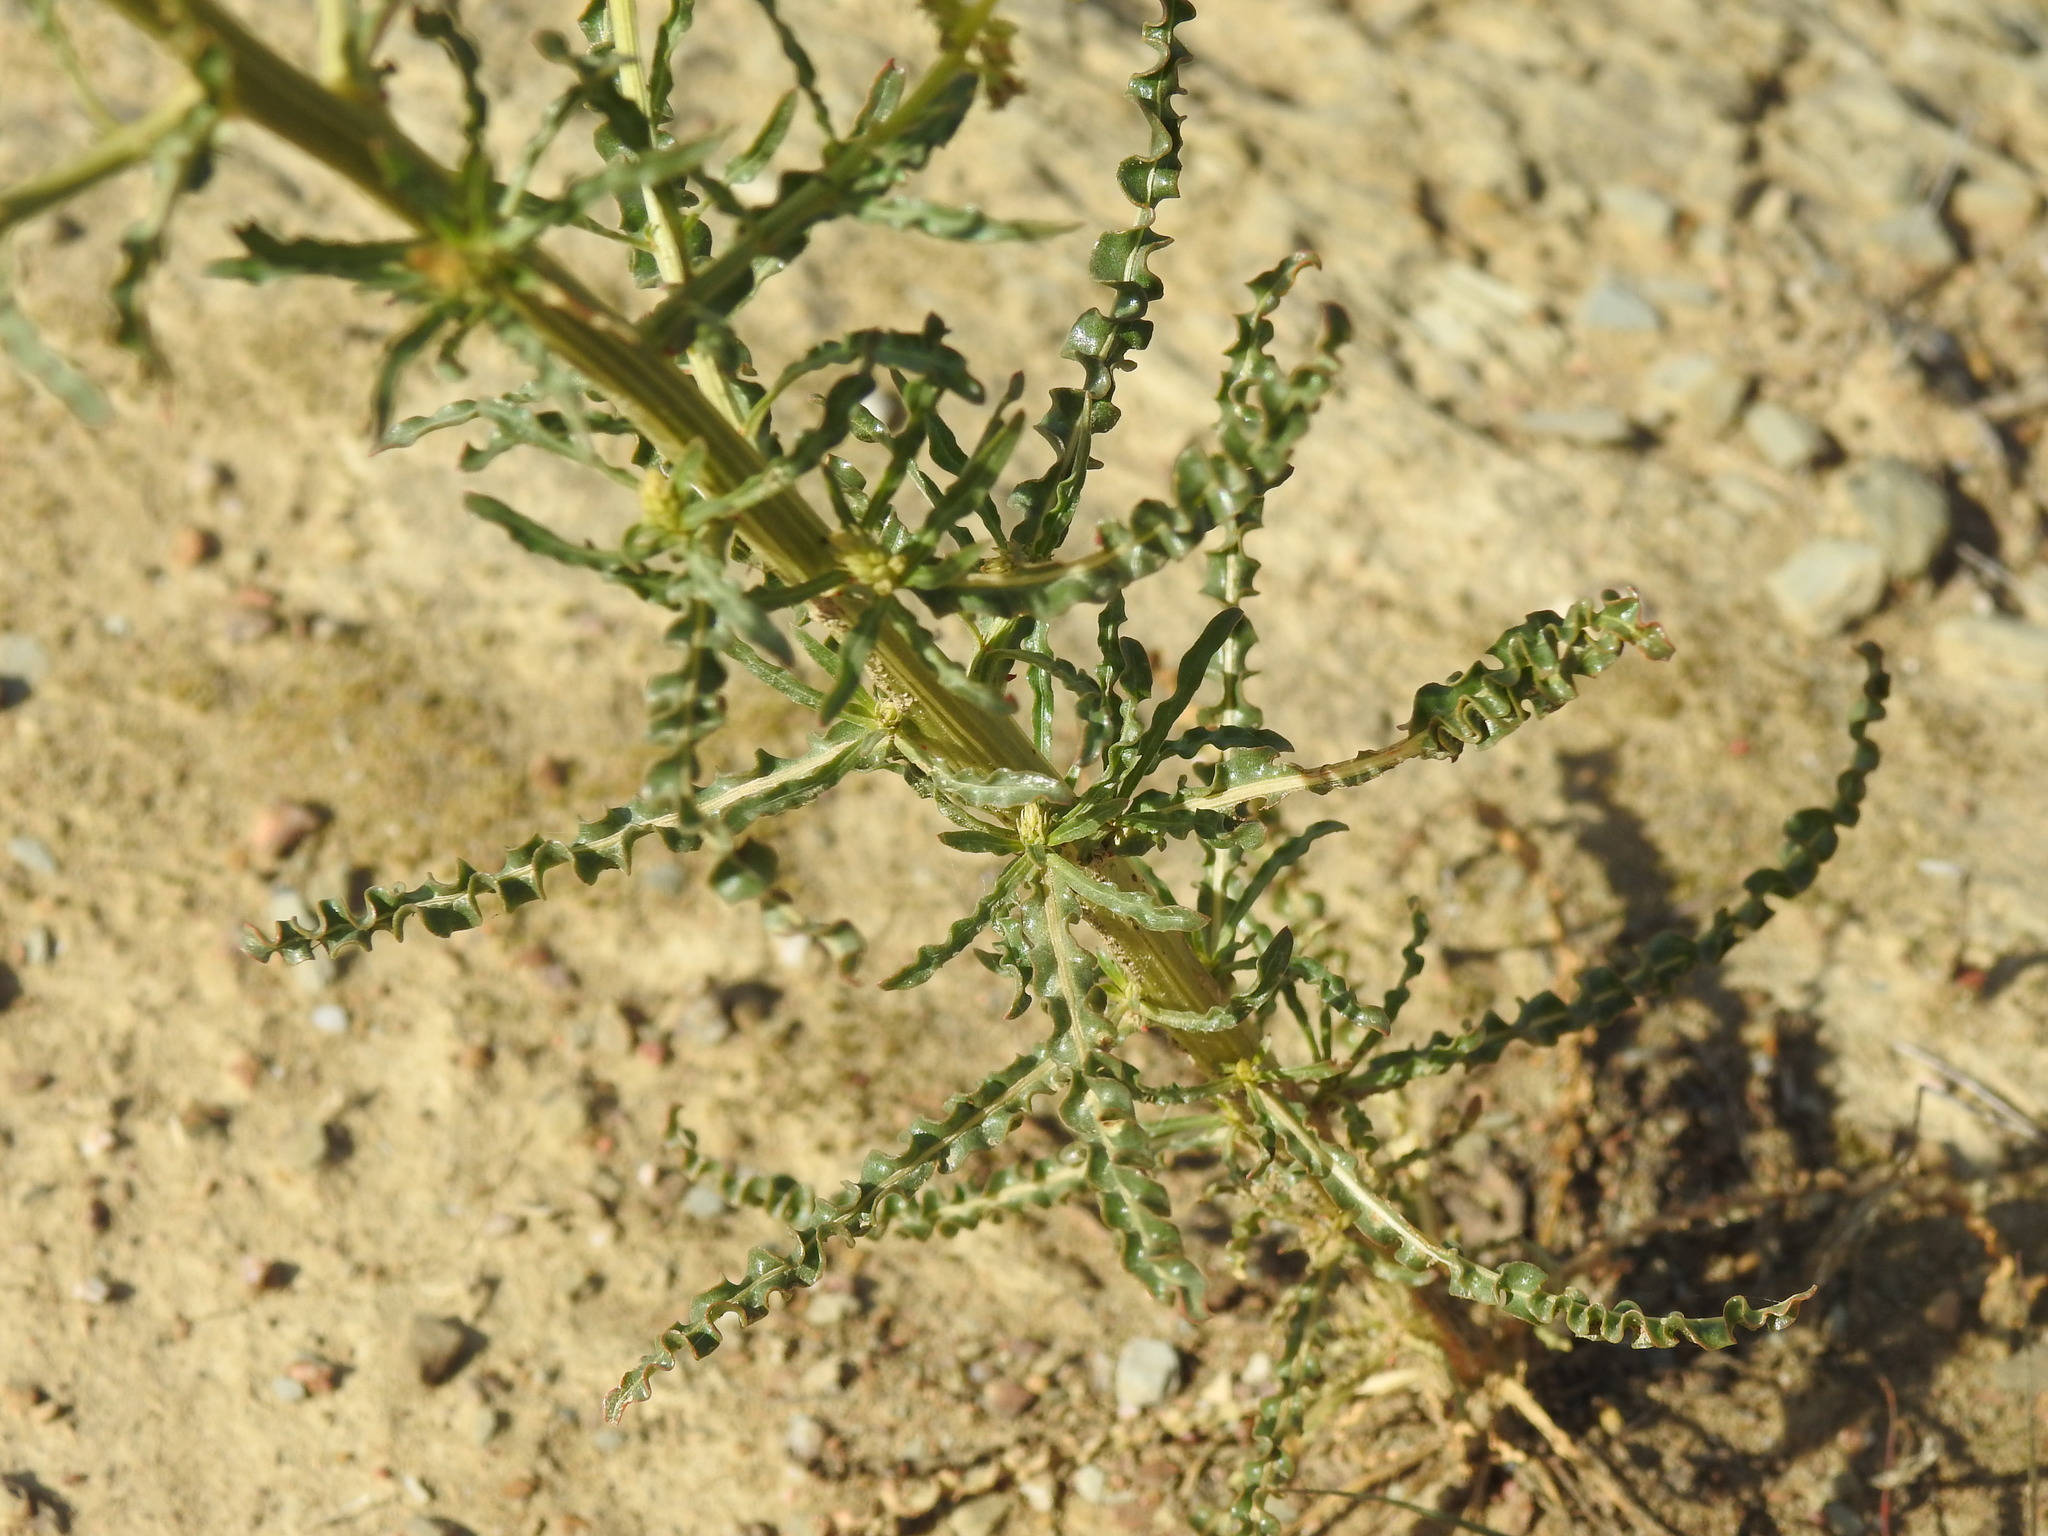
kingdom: Plantae
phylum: Tracheophyta
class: Magnoliopsida
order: Brassicales
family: Resedaceae
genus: Reseda
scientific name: Reseda luteola
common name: Weld
